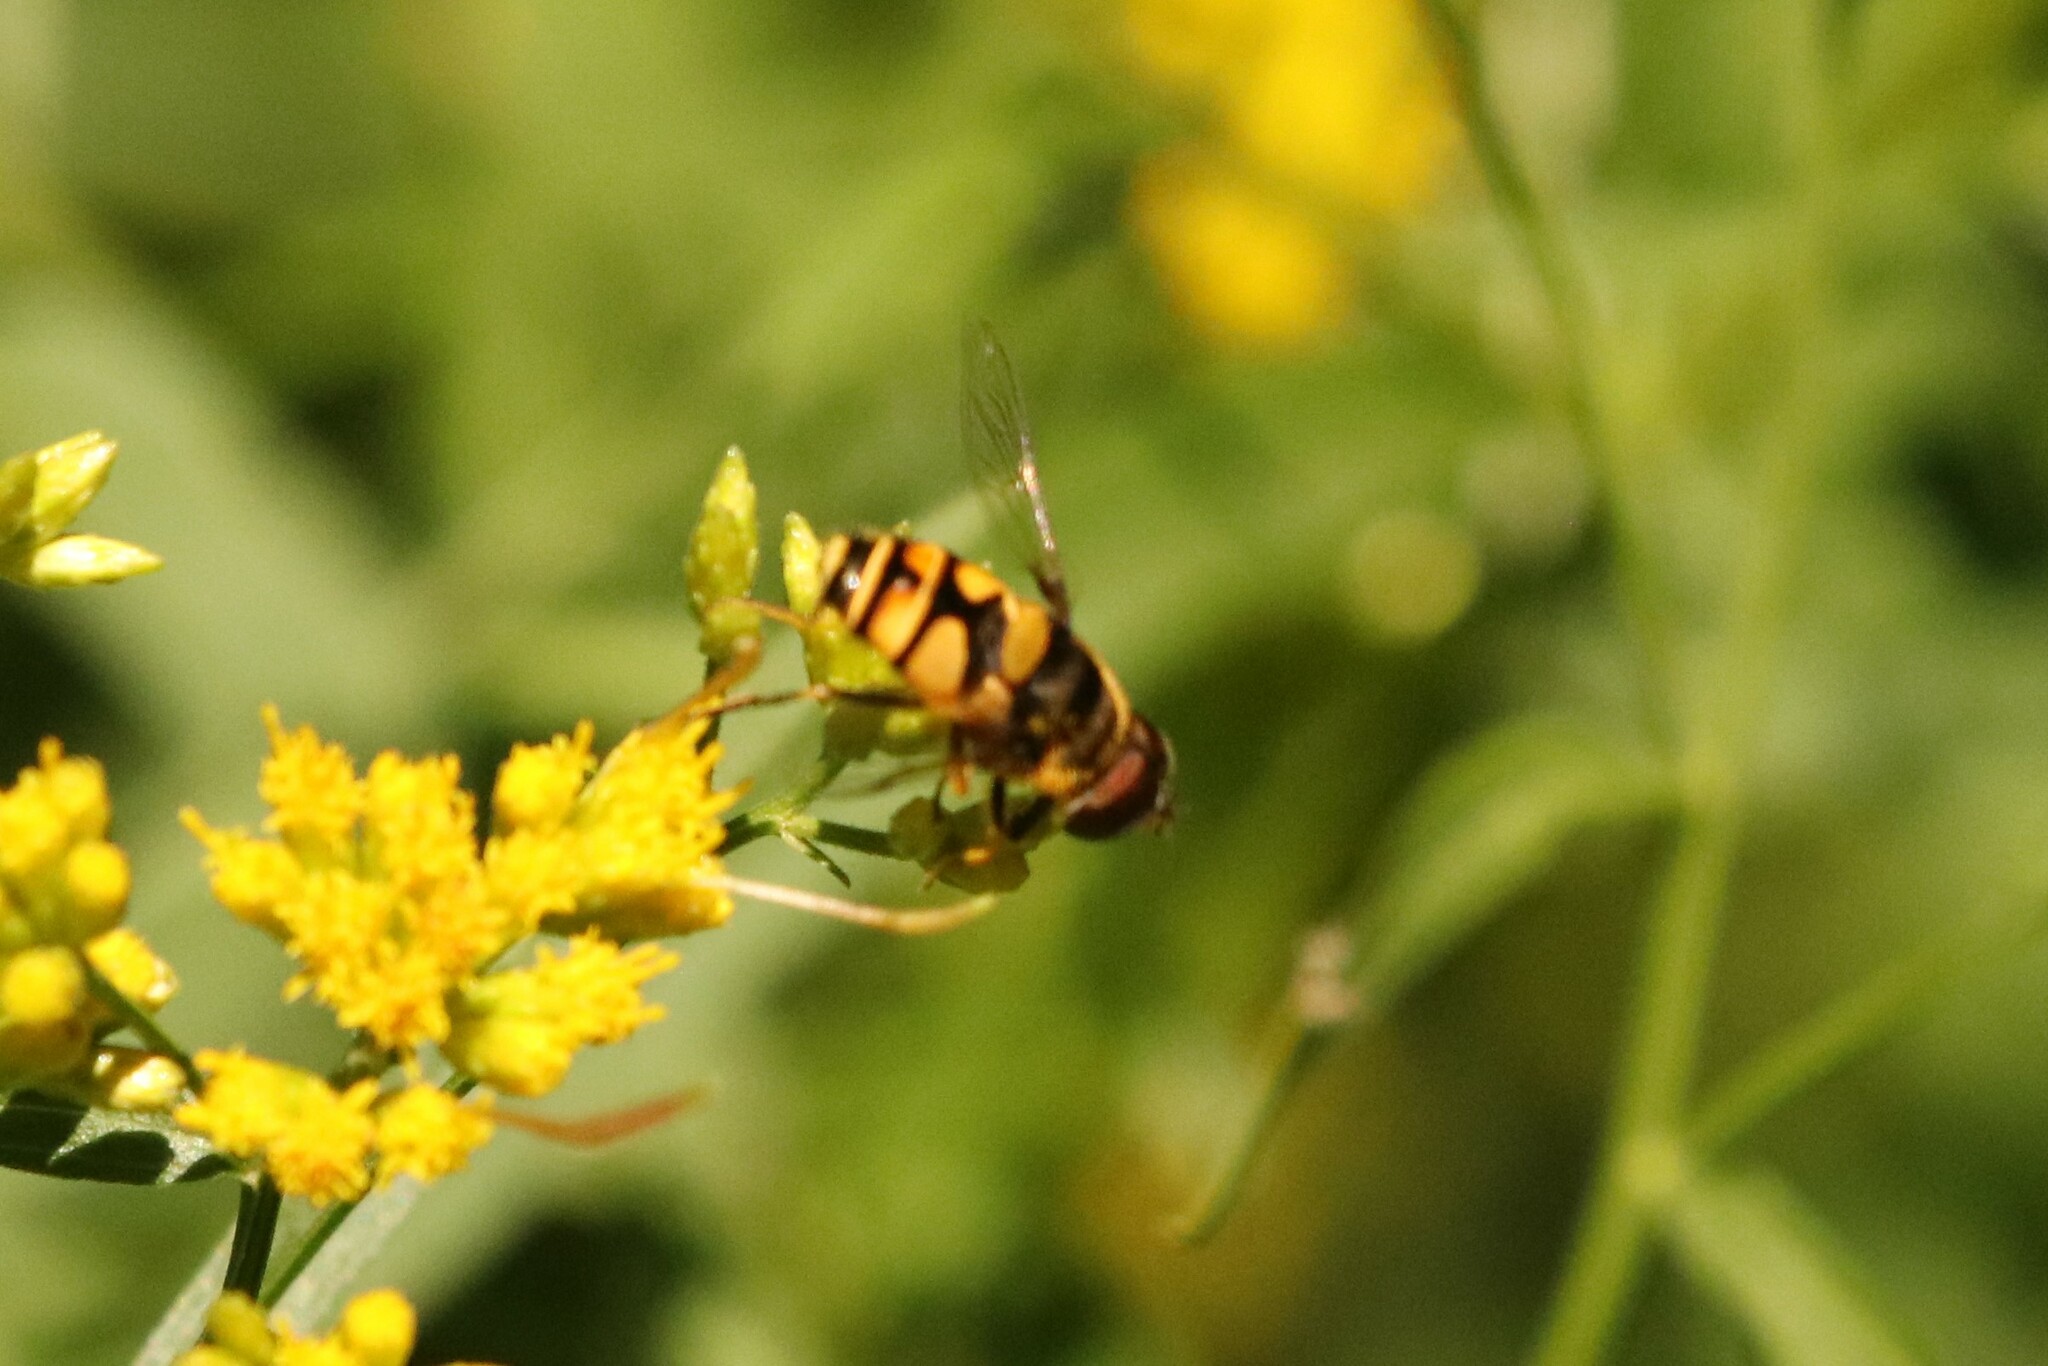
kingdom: Animalia
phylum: Arthropoda
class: Insecta
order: Diptera
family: Syrphidae
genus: Eristalis
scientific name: Eristalis transversa
